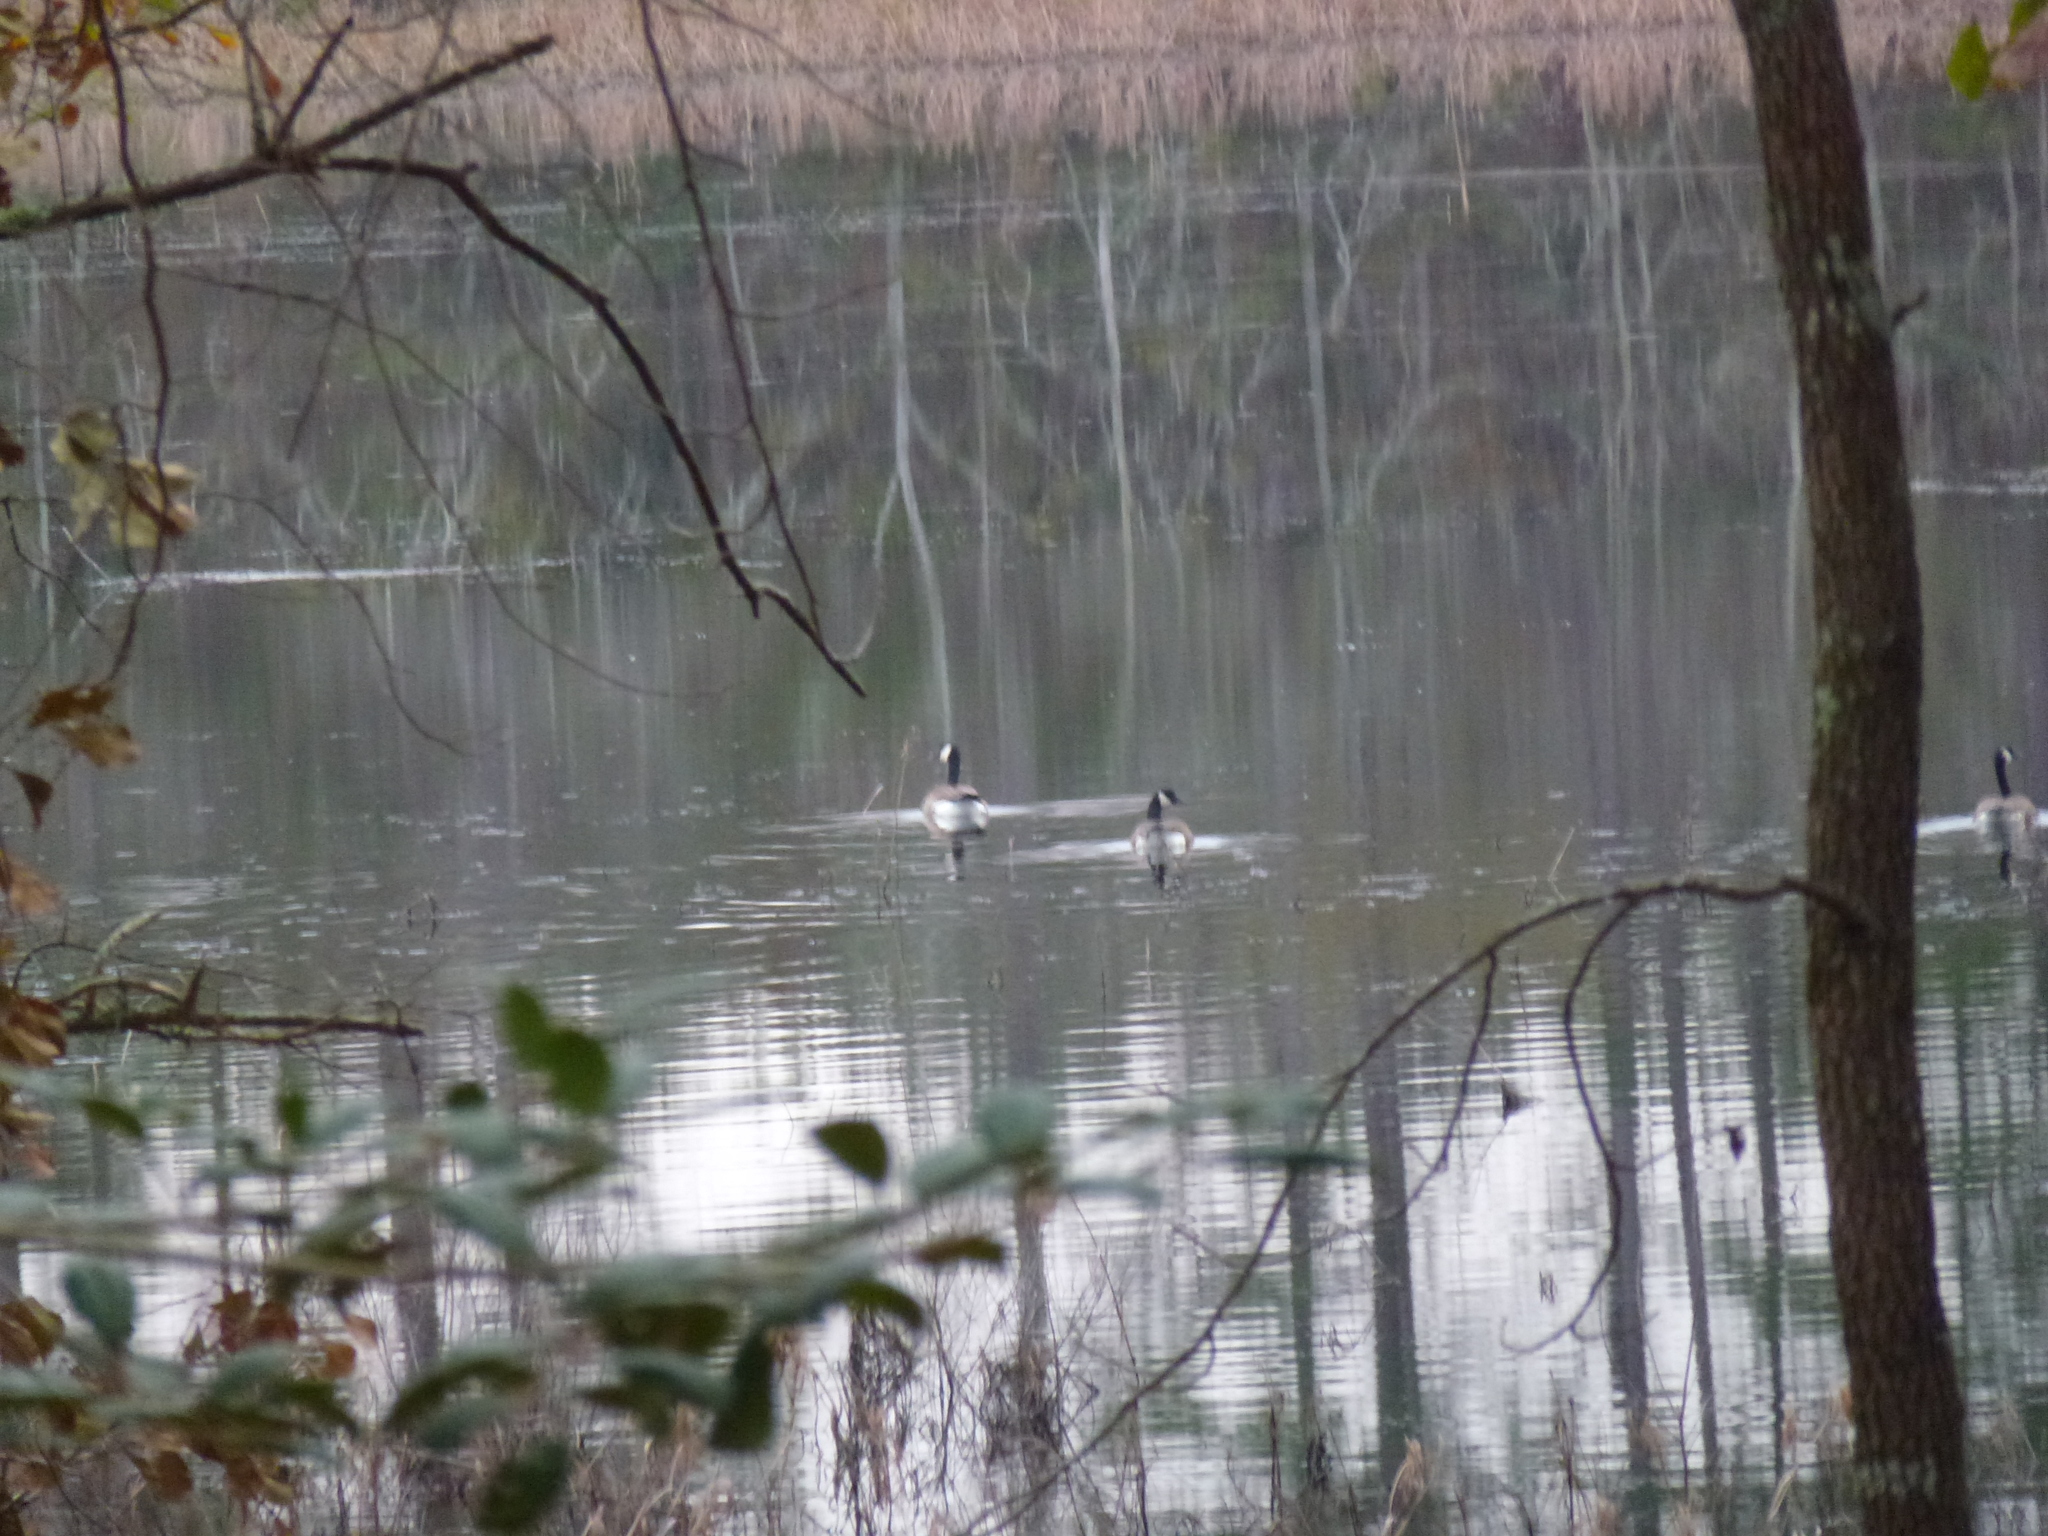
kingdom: Animalia
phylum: Chordata
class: Aves
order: Anseriformes
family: Anatidae
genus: Branta
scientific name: Branta canadensis
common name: Canada goose
